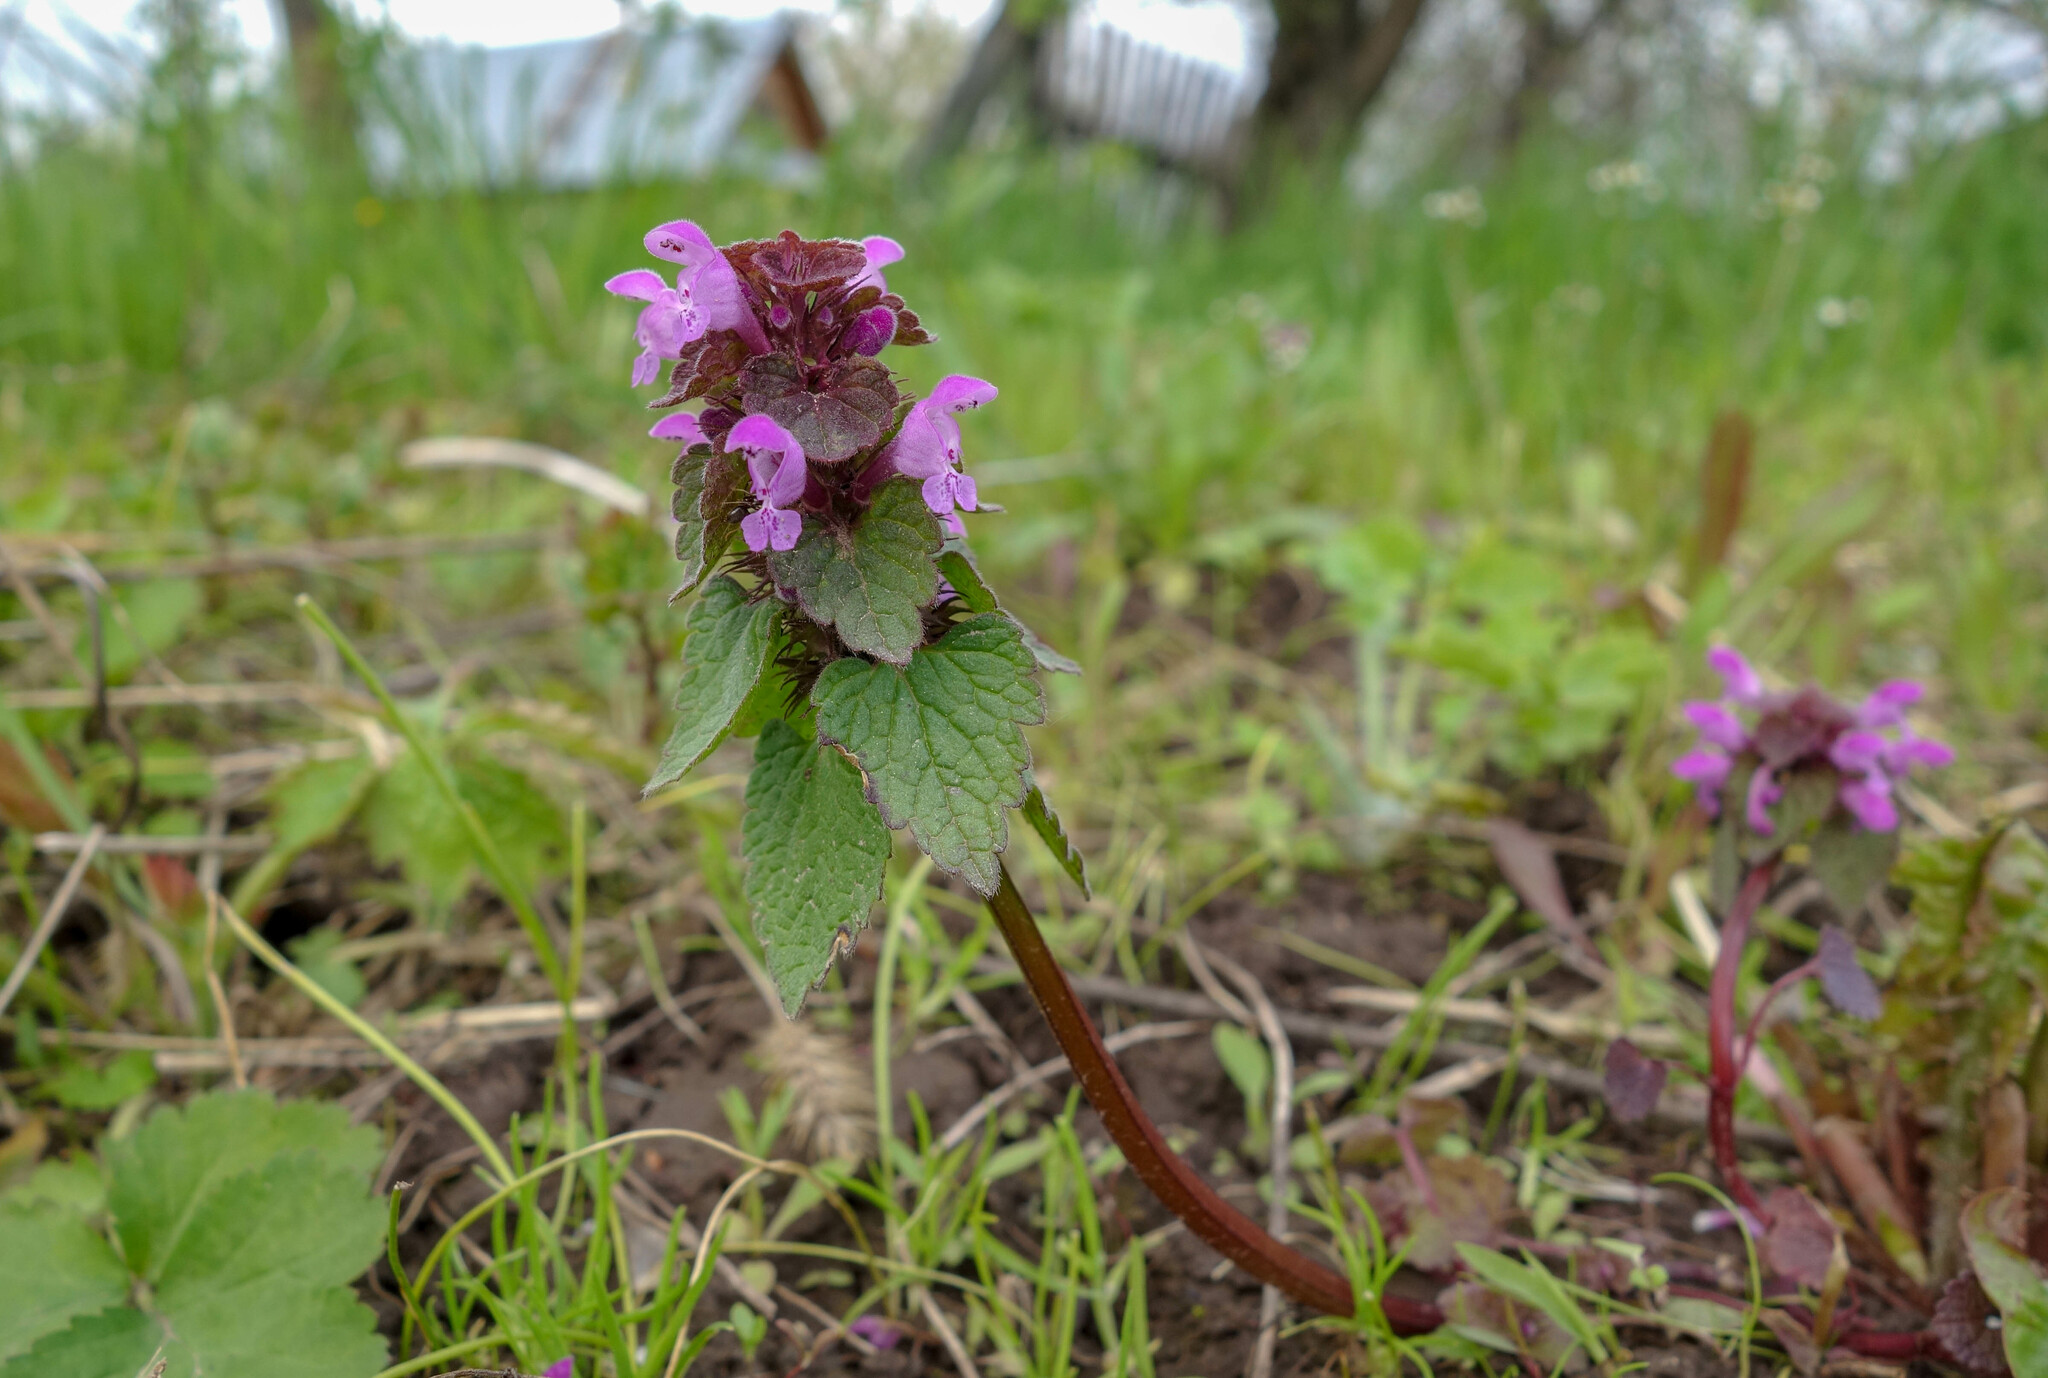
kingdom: Plantae
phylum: Tracheophyta
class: Magnoliopsida
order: Lamiales
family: Lamiaceae
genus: Lamium
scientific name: Lamium purpureum
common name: Red dead-nettle
